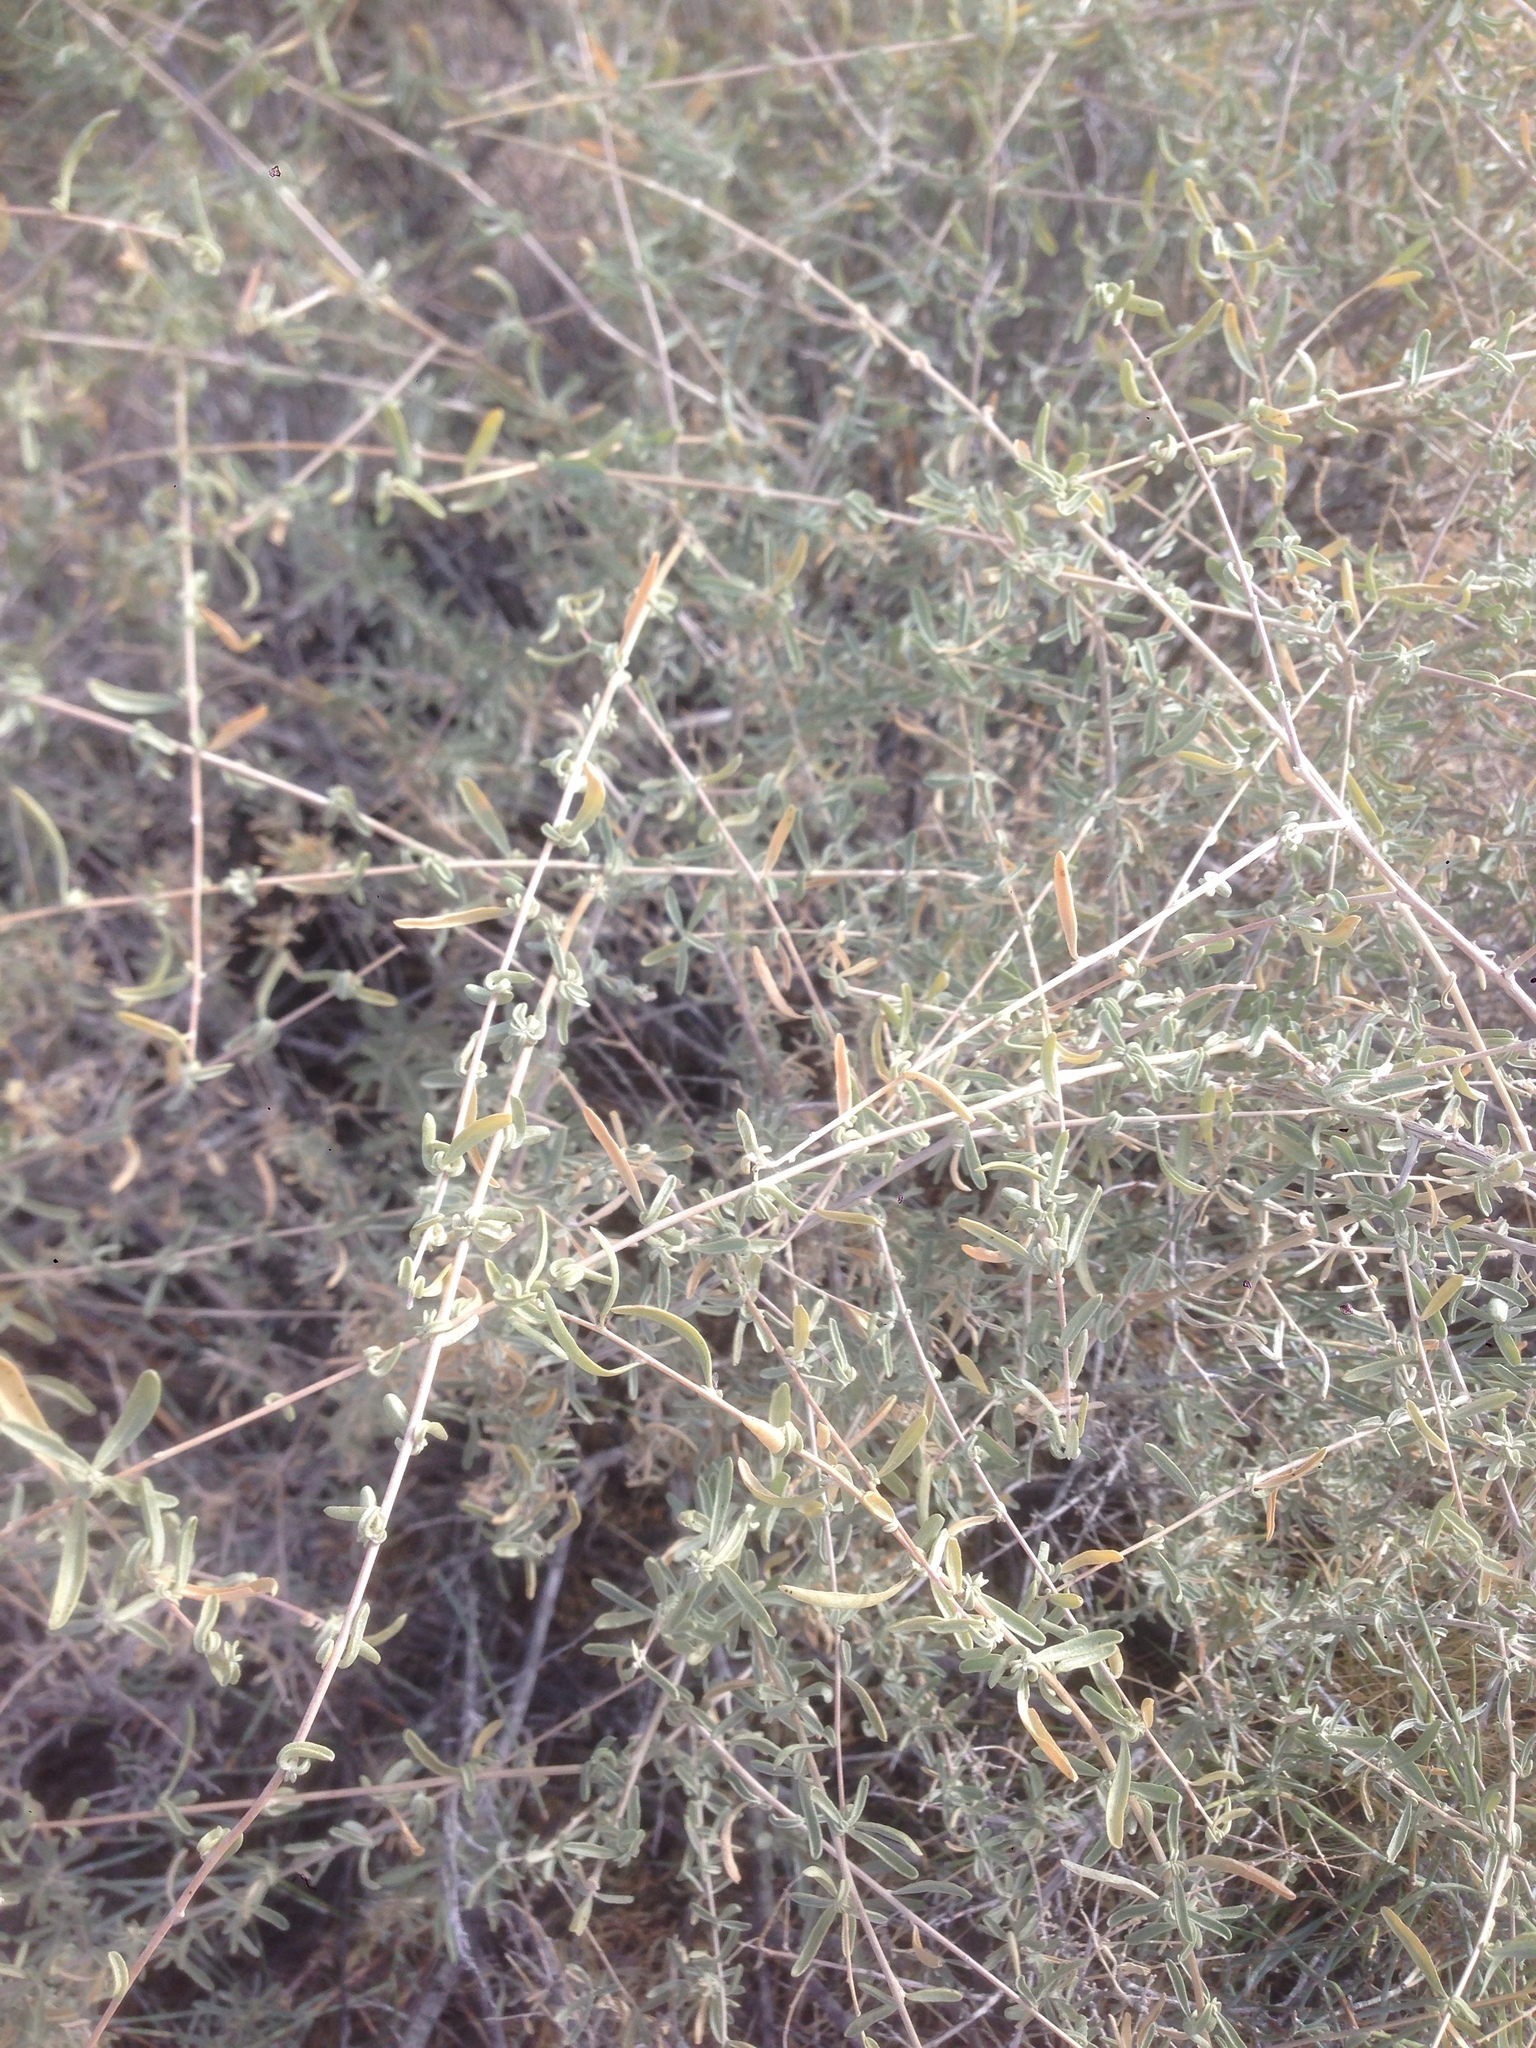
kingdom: Plantae
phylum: Tracheophyta
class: Magnoliopsida
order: Caryophyllales
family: Amaranthaceae
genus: Atriplex
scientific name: Atriplex canescens
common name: Four-wing saltbush
